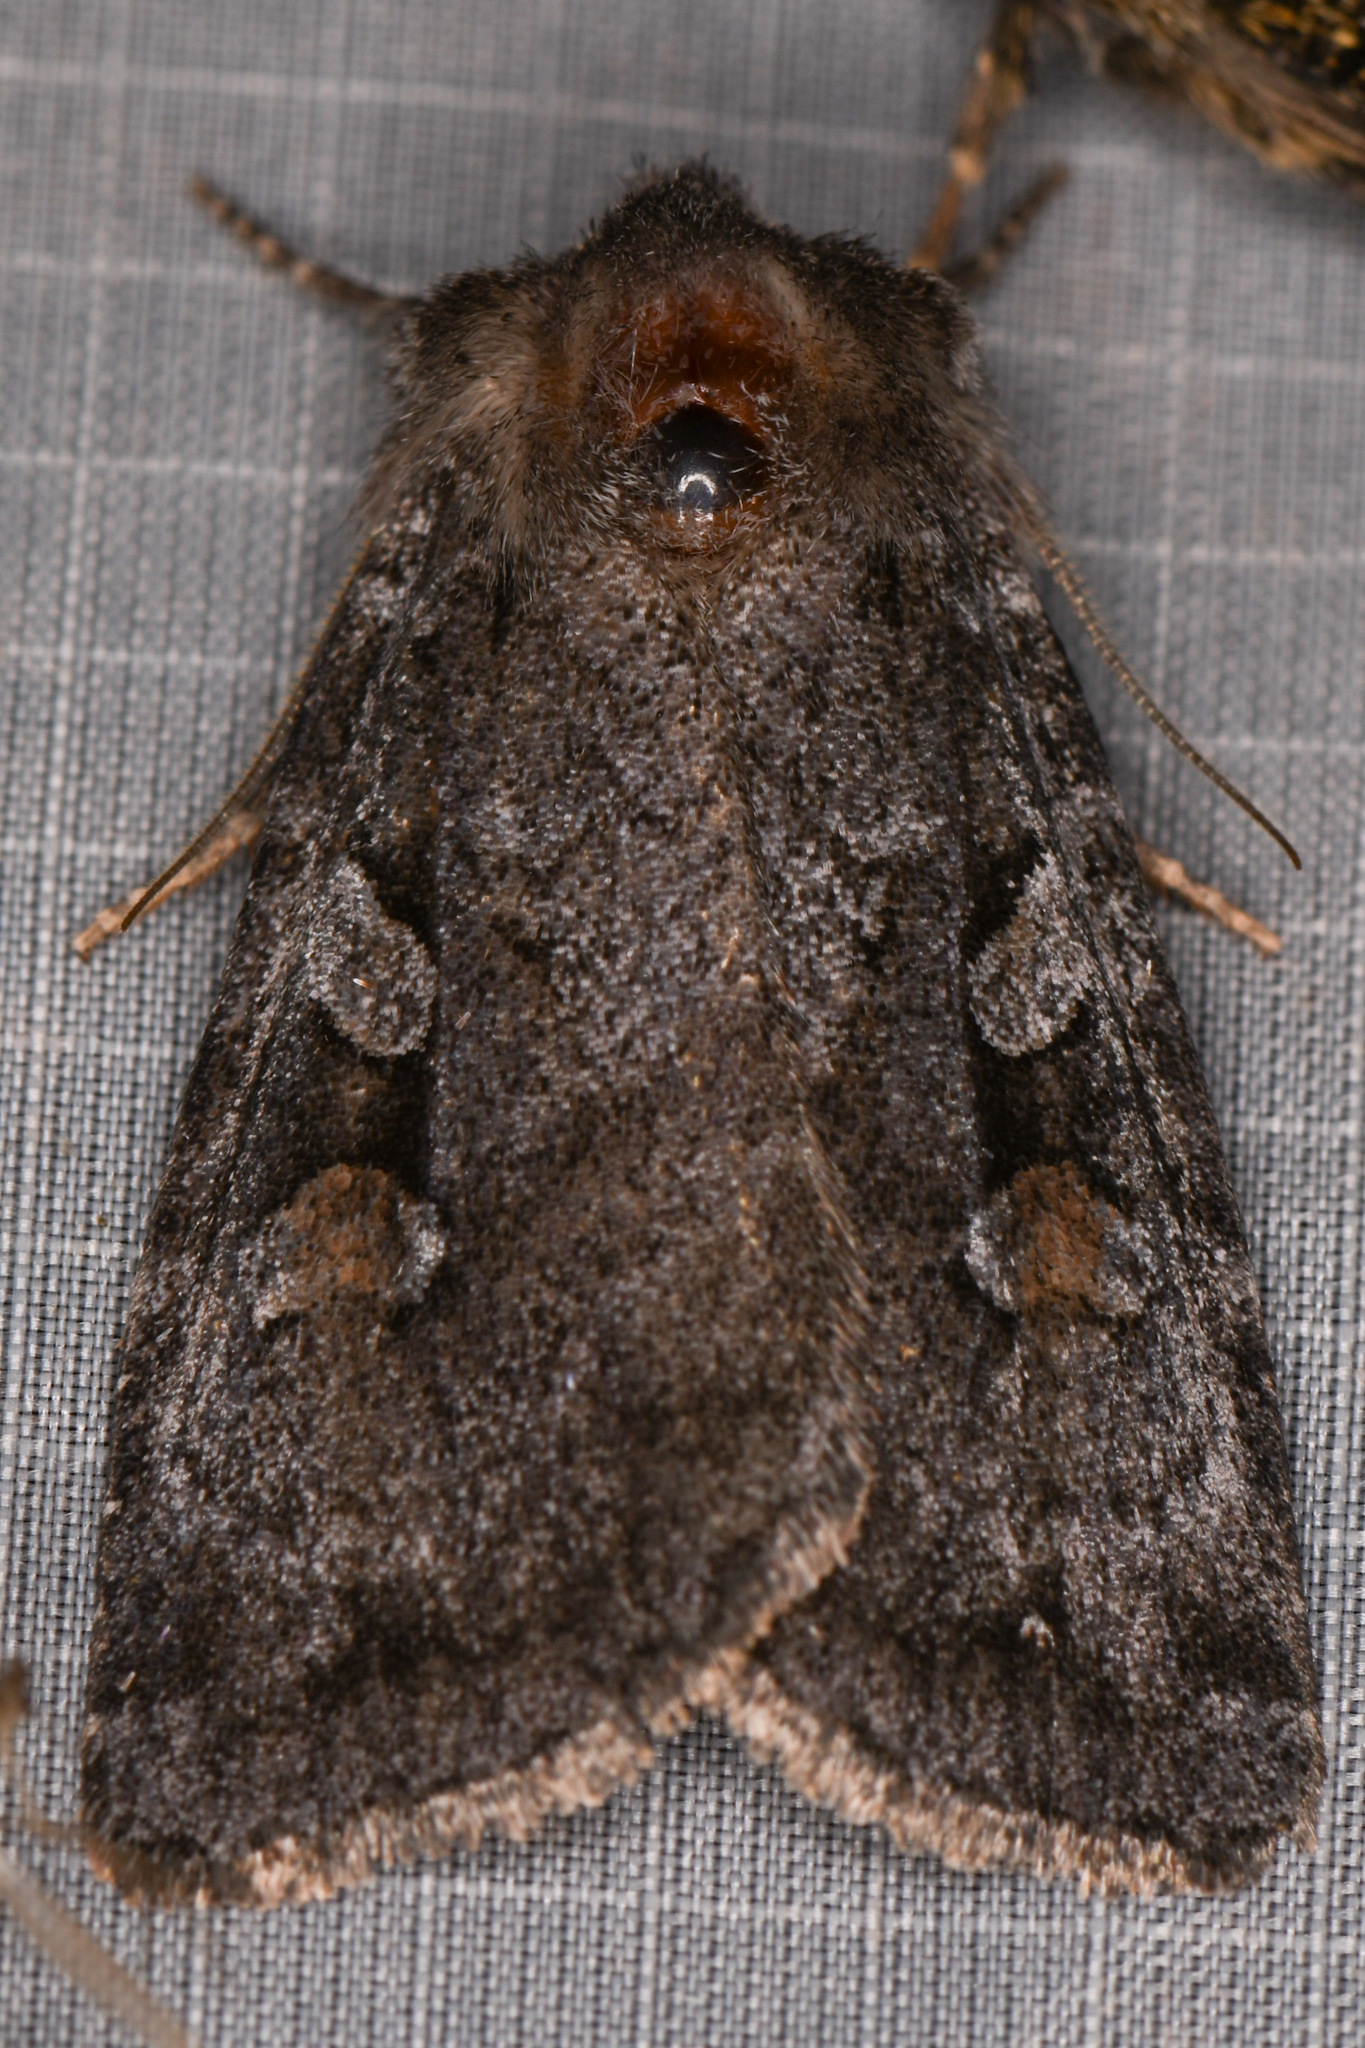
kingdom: Animalia
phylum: Arthropoda
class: Insecta
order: Lepidoptera
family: Noctuidae
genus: Xestia
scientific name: Xestia imperita
